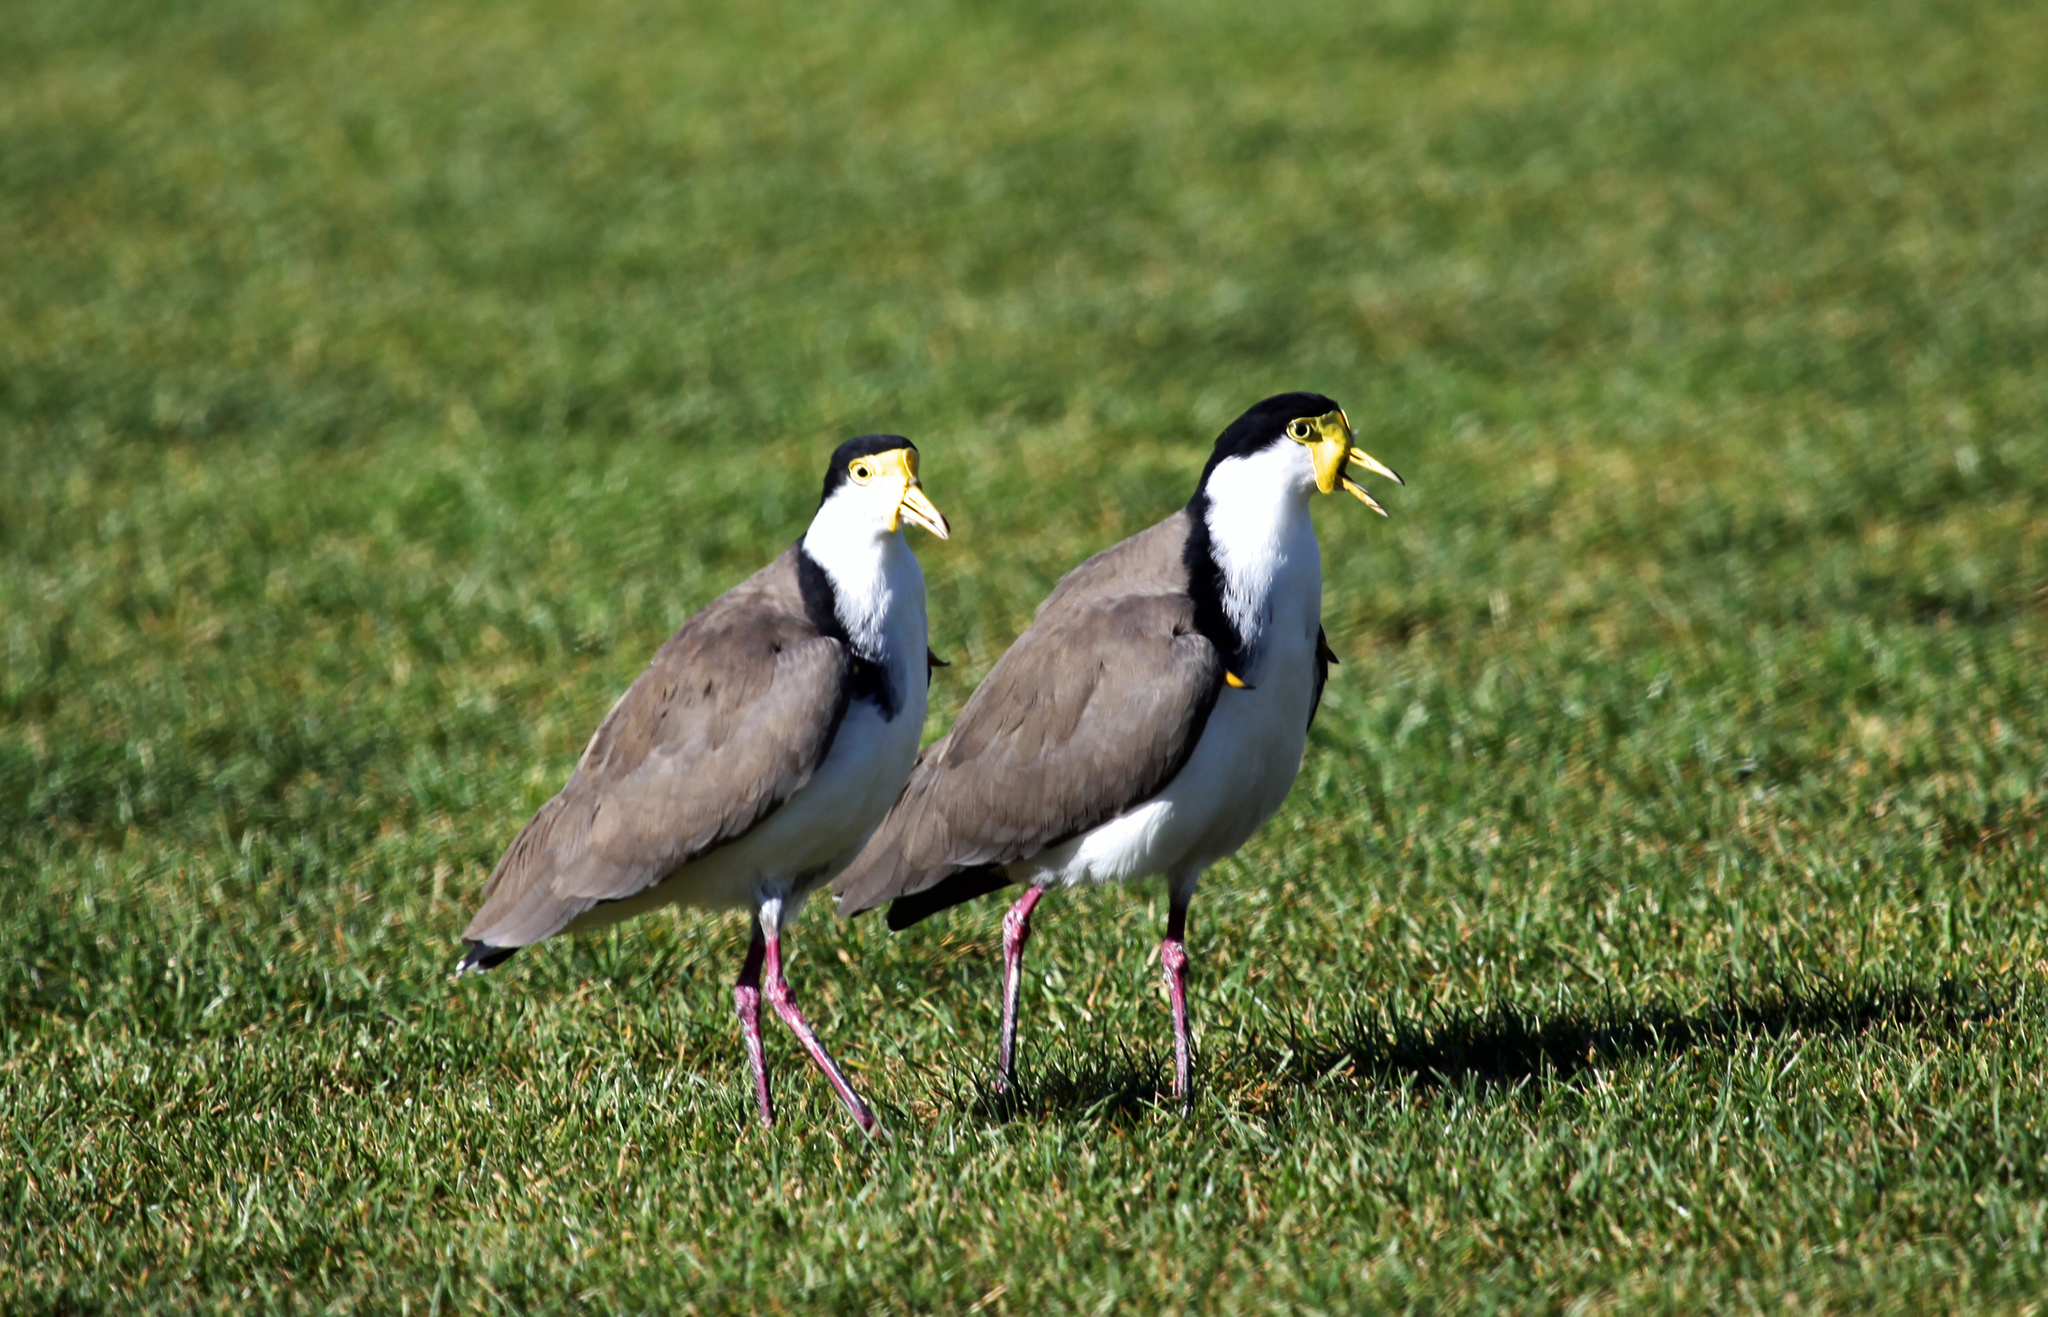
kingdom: Animalia
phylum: Chordata
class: Aves
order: Charadriiformes
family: Charadriidae
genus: Vanellus
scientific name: Vanellus miles
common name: Masked lapwing
